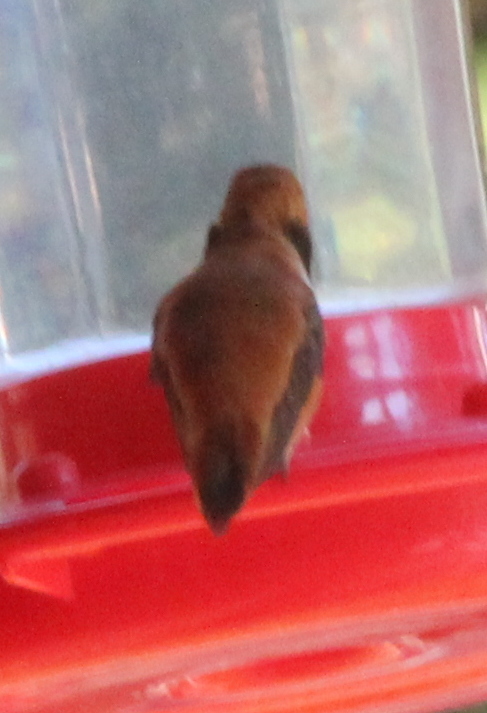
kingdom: Animalia
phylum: Chordata
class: Aves
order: Apodiformes
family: Trochilidae
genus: Selasphorus
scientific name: Selasphorus rufus
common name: Rufous hummingbird
